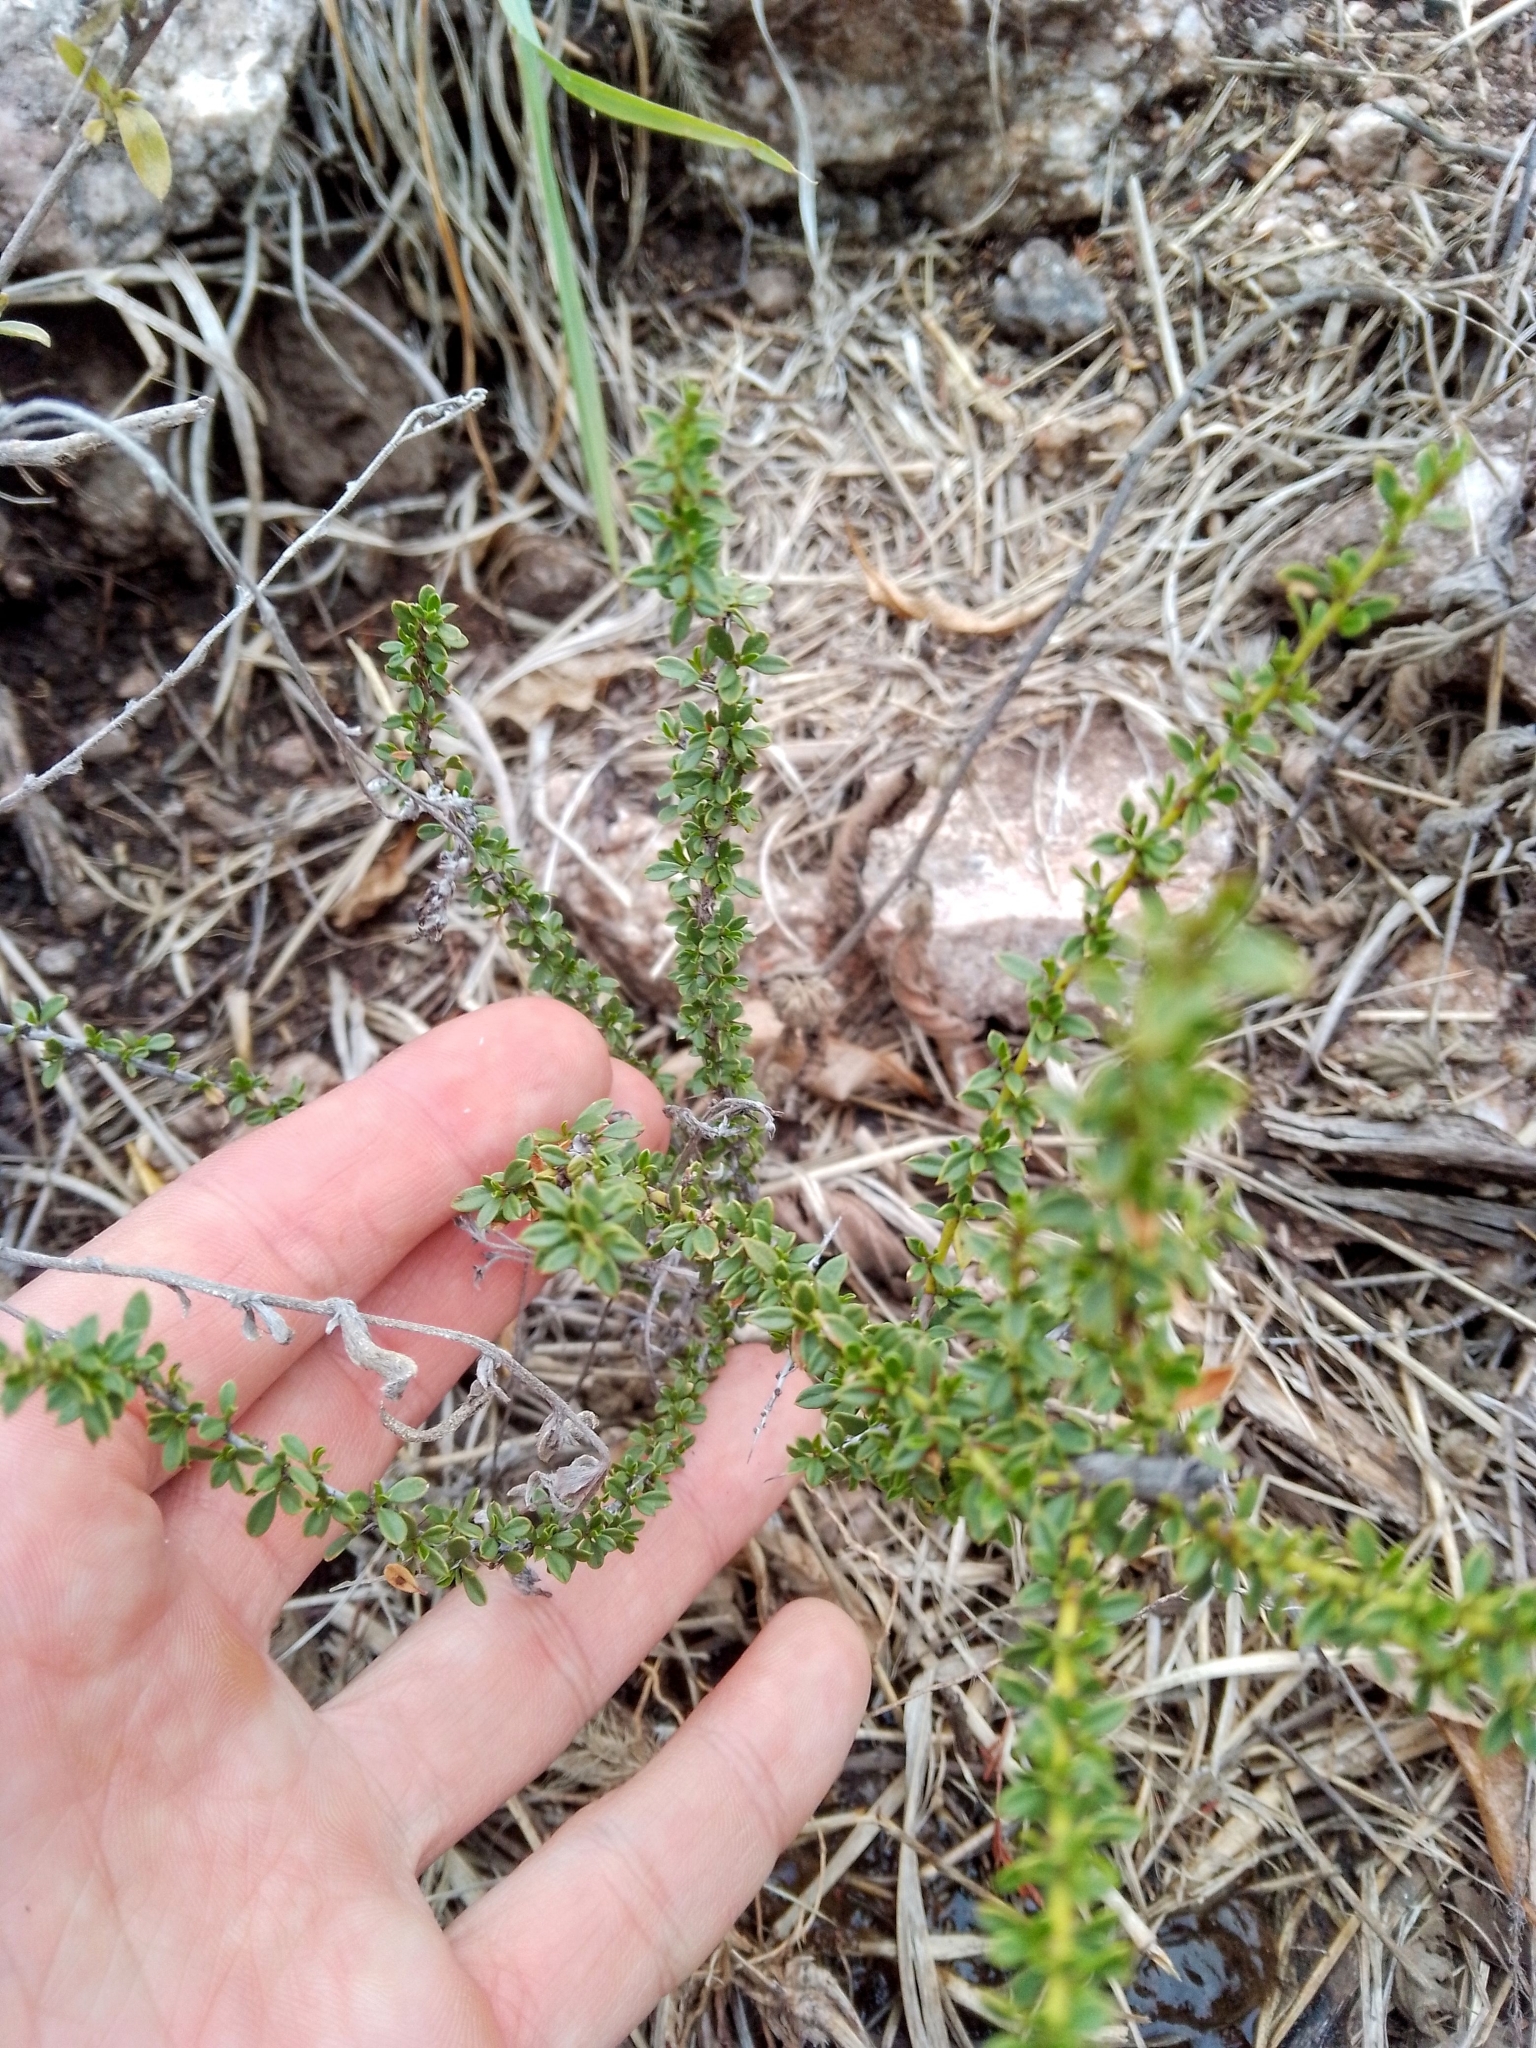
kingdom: Plantae
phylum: Tracheophyta
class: Magnoliopsida
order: Rosales
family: Rhamnaceae
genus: Condalia
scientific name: Condalia microphylla
